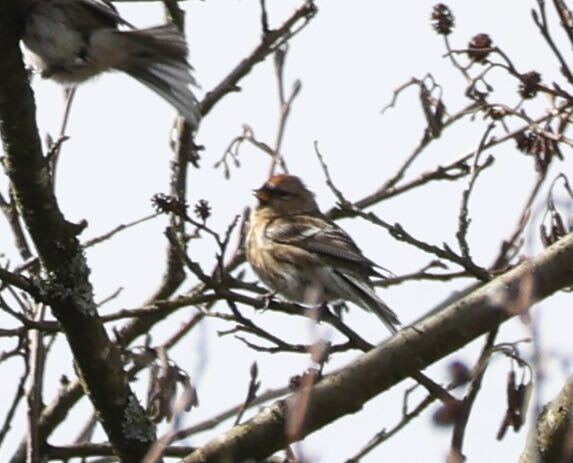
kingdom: Animalia
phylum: Chordata
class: Aves
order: Passeriformes
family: Fringillidae
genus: Acanthis
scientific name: Acanthis flammea
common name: Common redpoll
